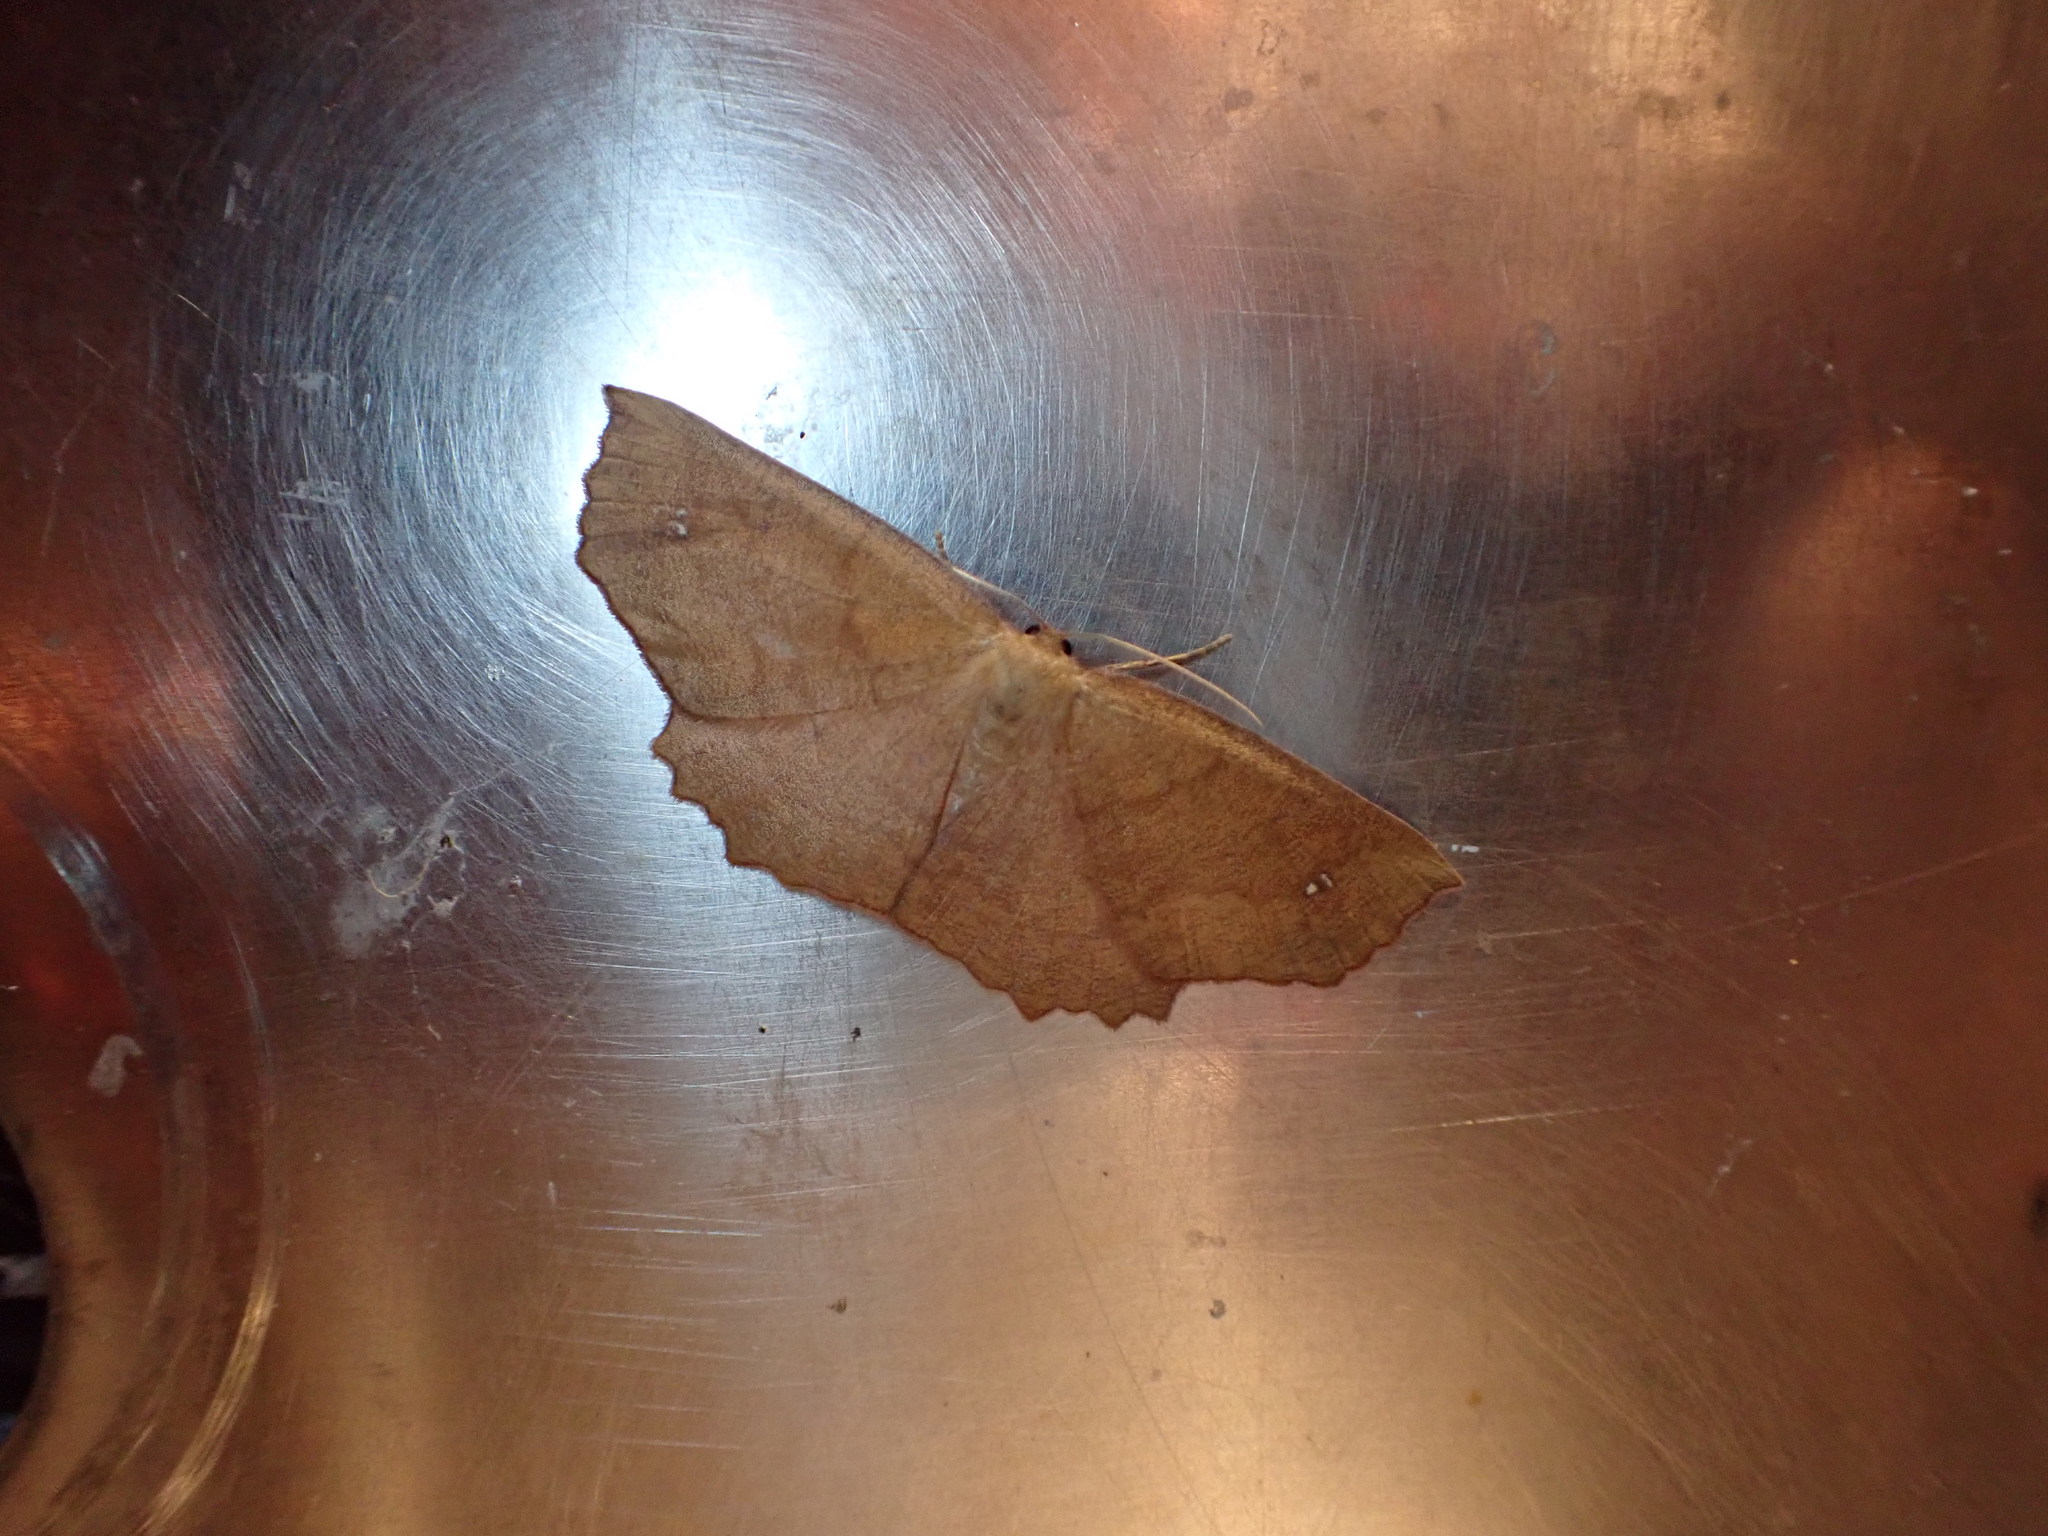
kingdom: Animalia
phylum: Arthropoda
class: Insecta
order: Lepidoptera
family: Geometridae
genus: Xyridacma
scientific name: Xyridacma ustaria
